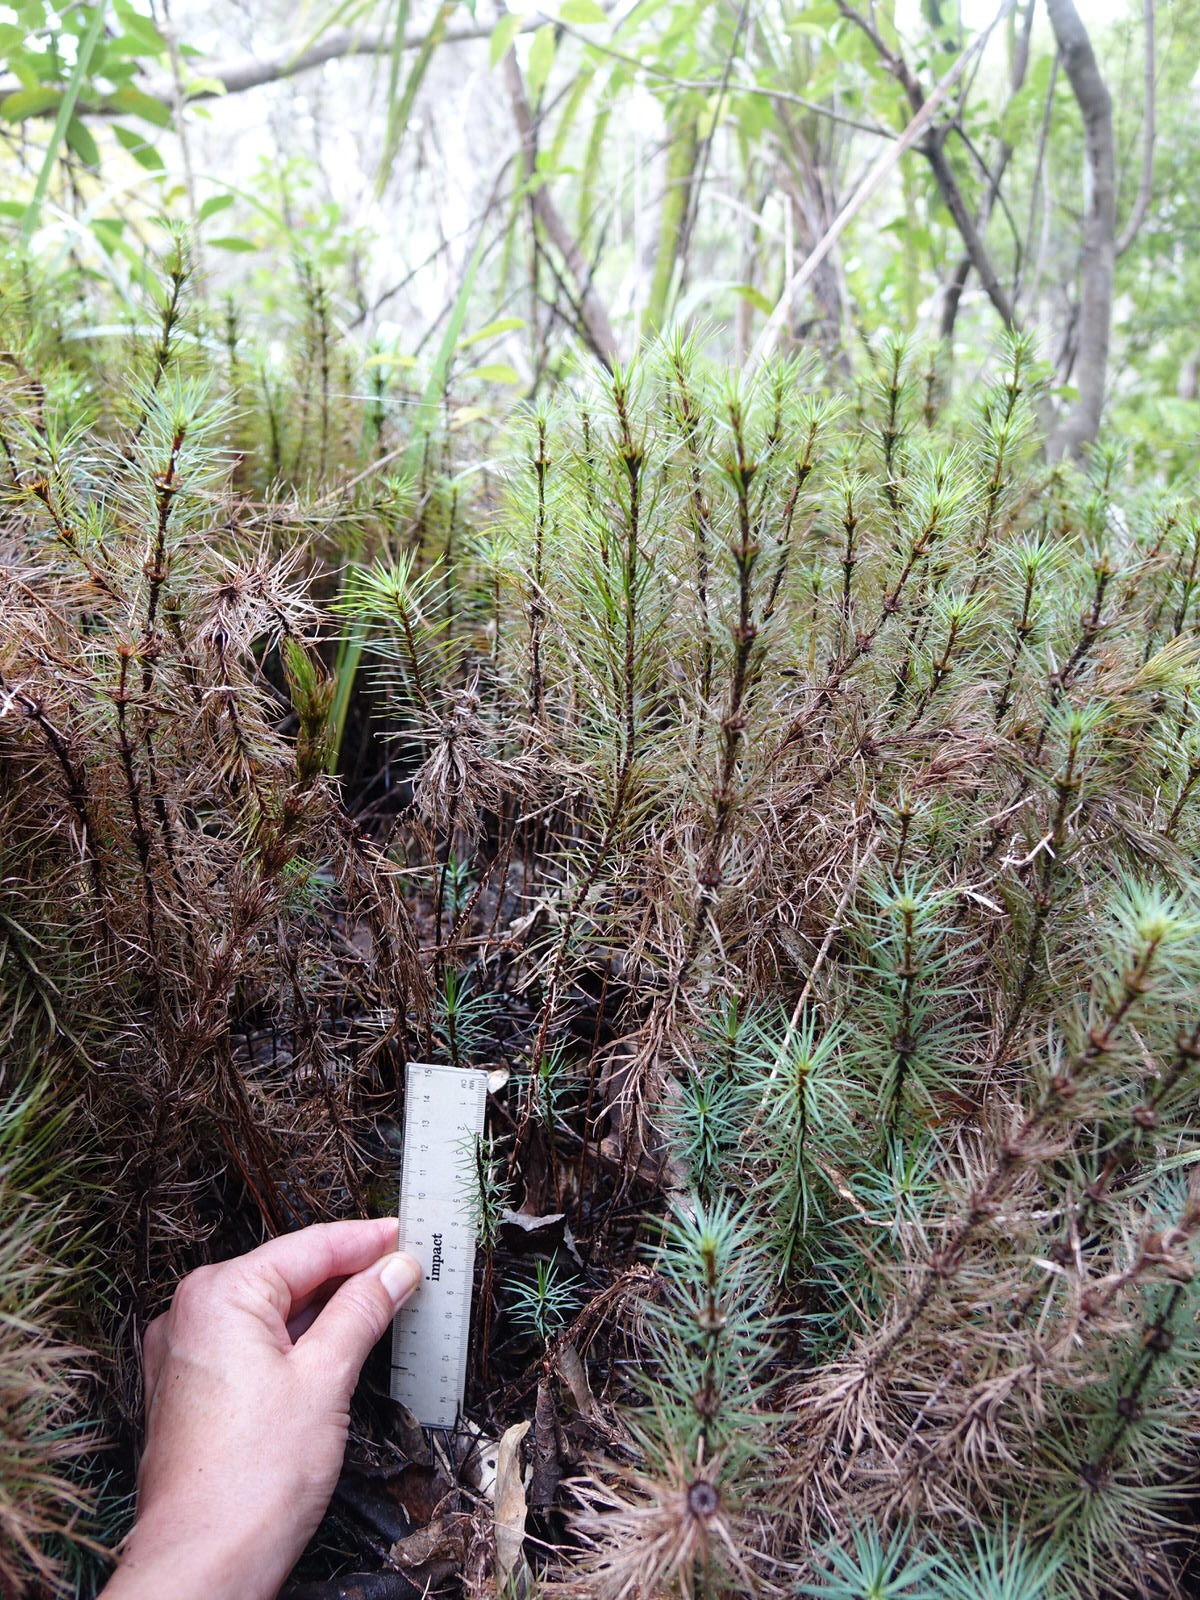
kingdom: Plantae
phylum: Bryophyta
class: Polytrichopsida
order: Polytrichales
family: Polytrichaceae
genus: Dawsonia
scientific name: Dawsonia superba
